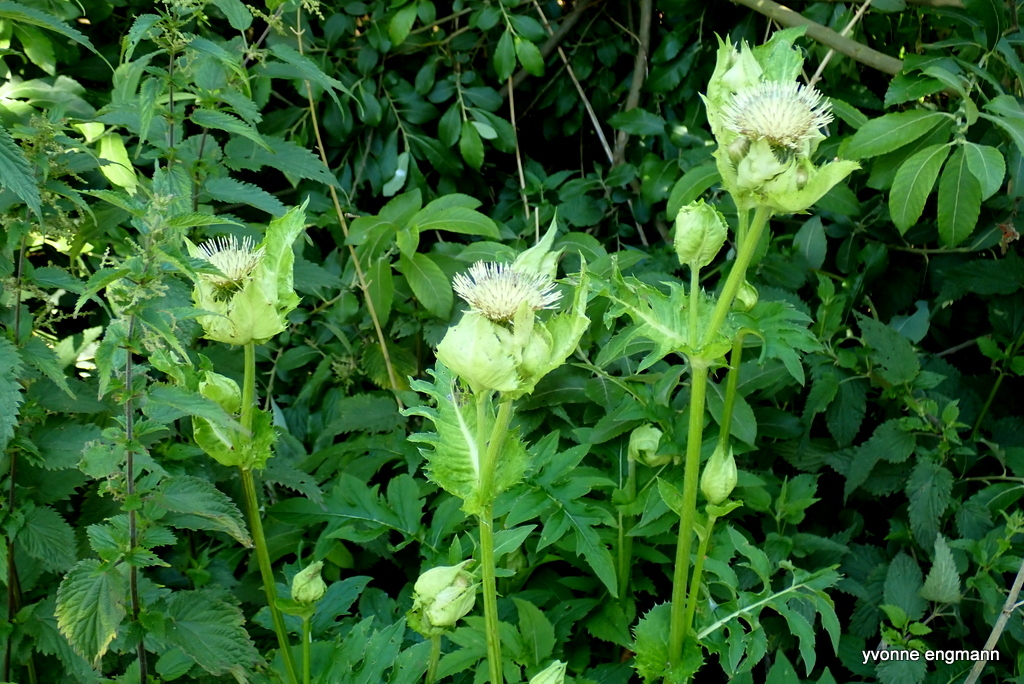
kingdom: Plantae
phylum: Tracheophyta
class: Magnoliopsida
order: Asterales
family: Asteraceae
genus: Cirsium
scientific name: Cirsium oleraceum
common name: Cabbage thistle
